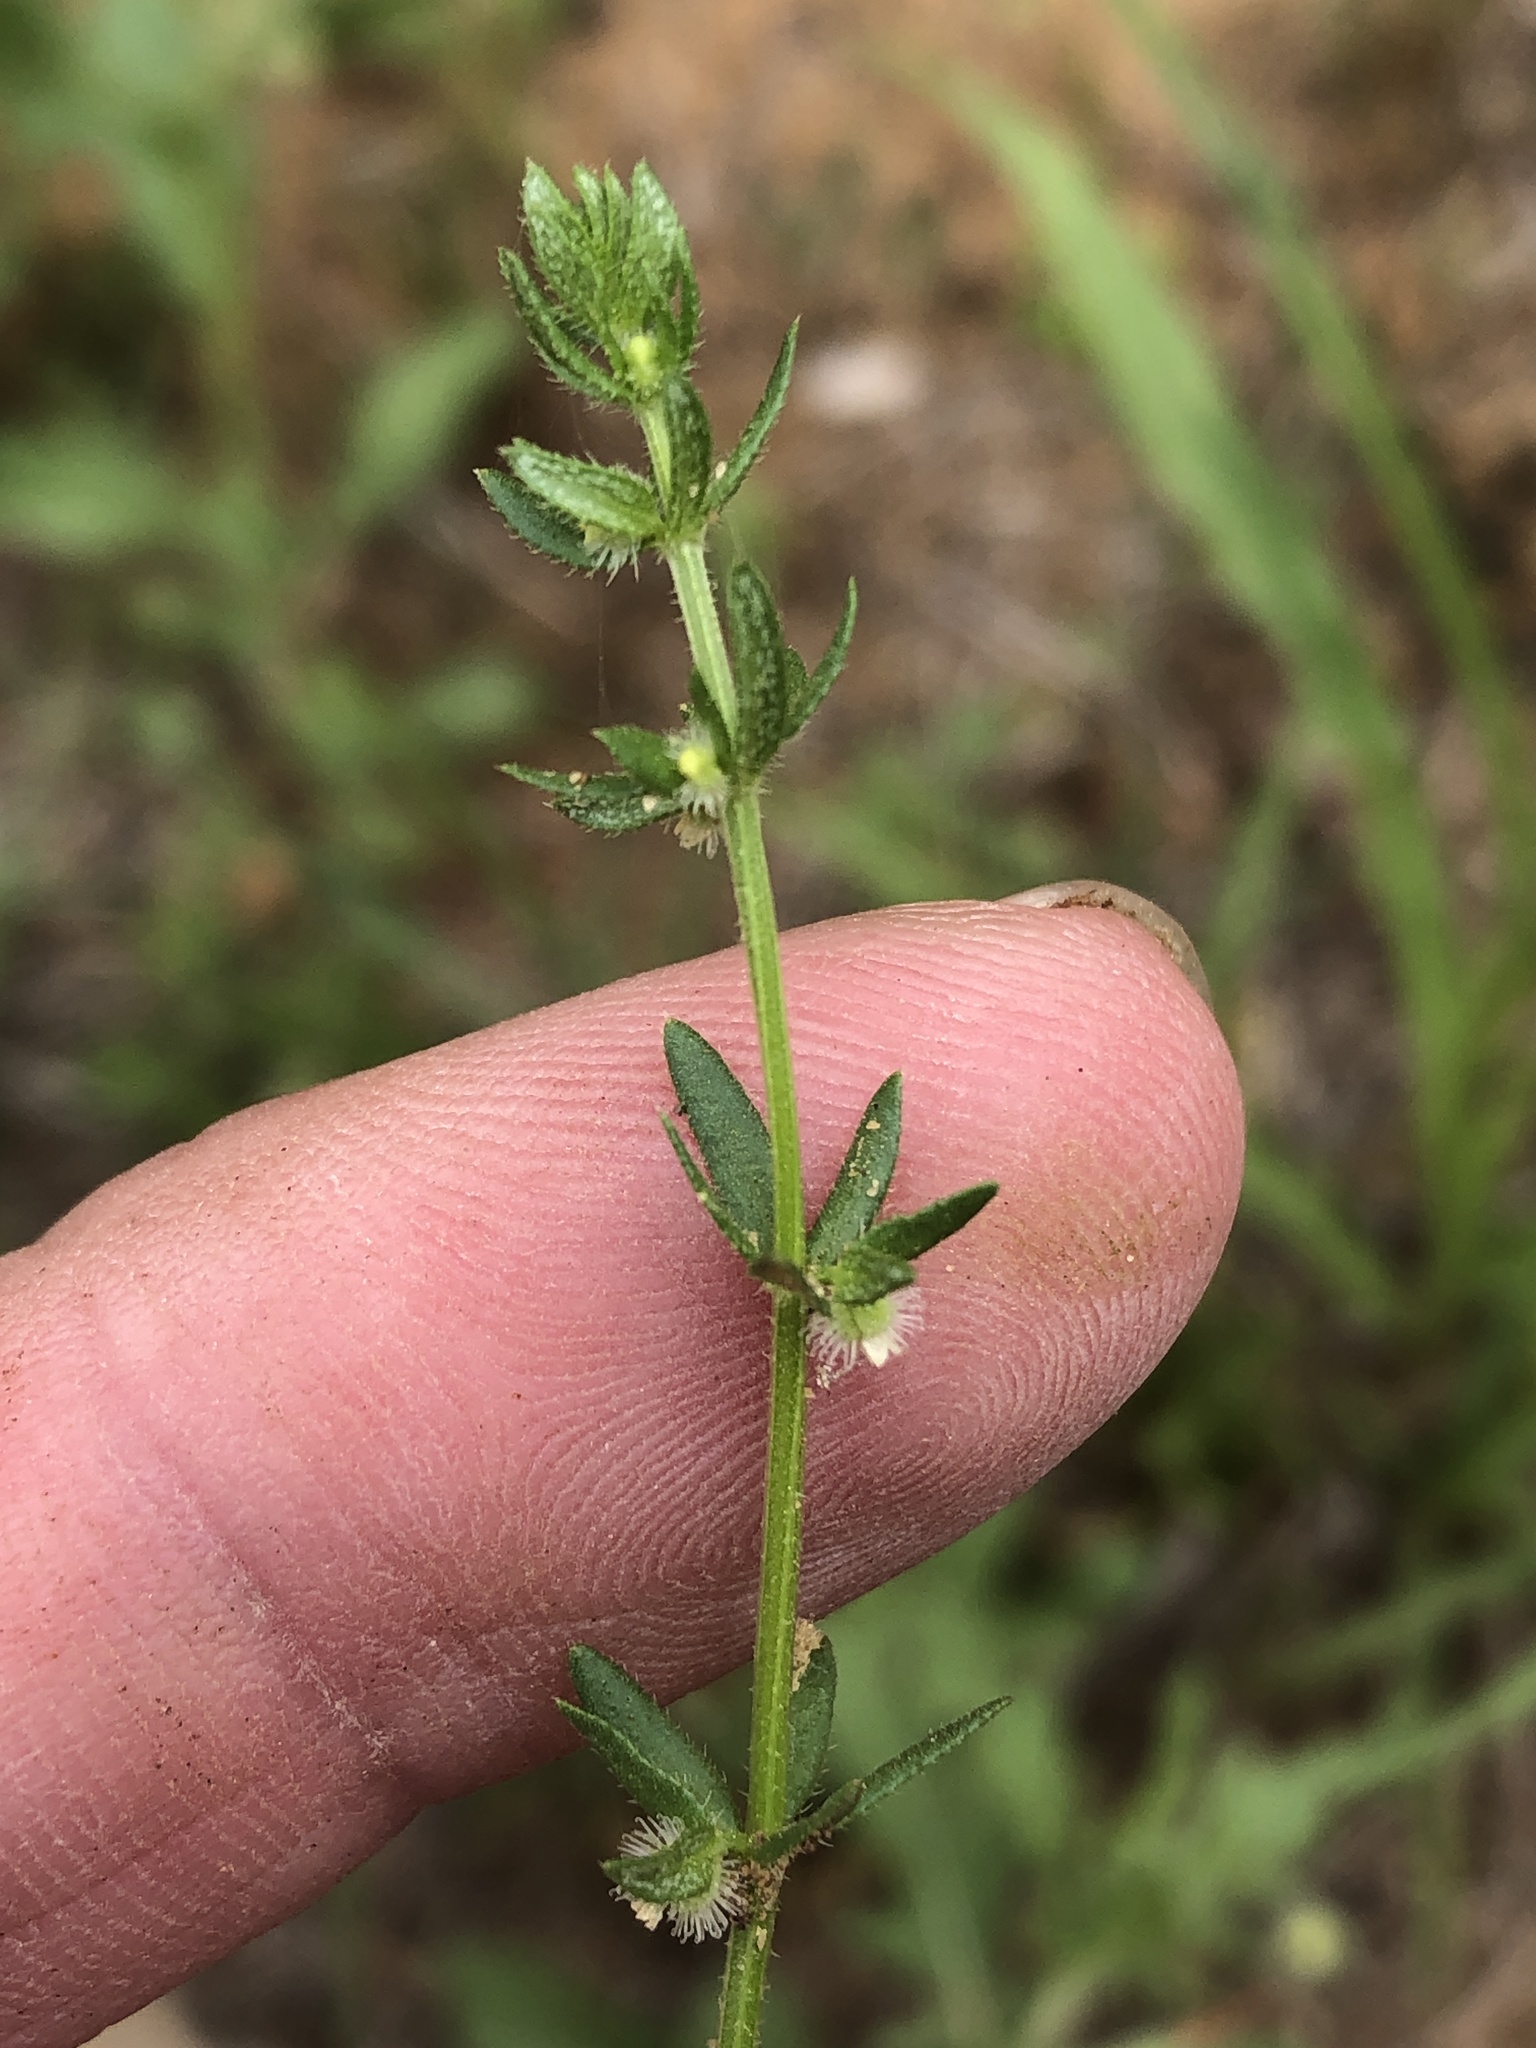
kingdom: Plantae
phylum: Tracheophyta
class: Magnoliopsida
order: Gentianales
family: Rubiaceae
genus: Galium
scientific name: Galium virgatum
